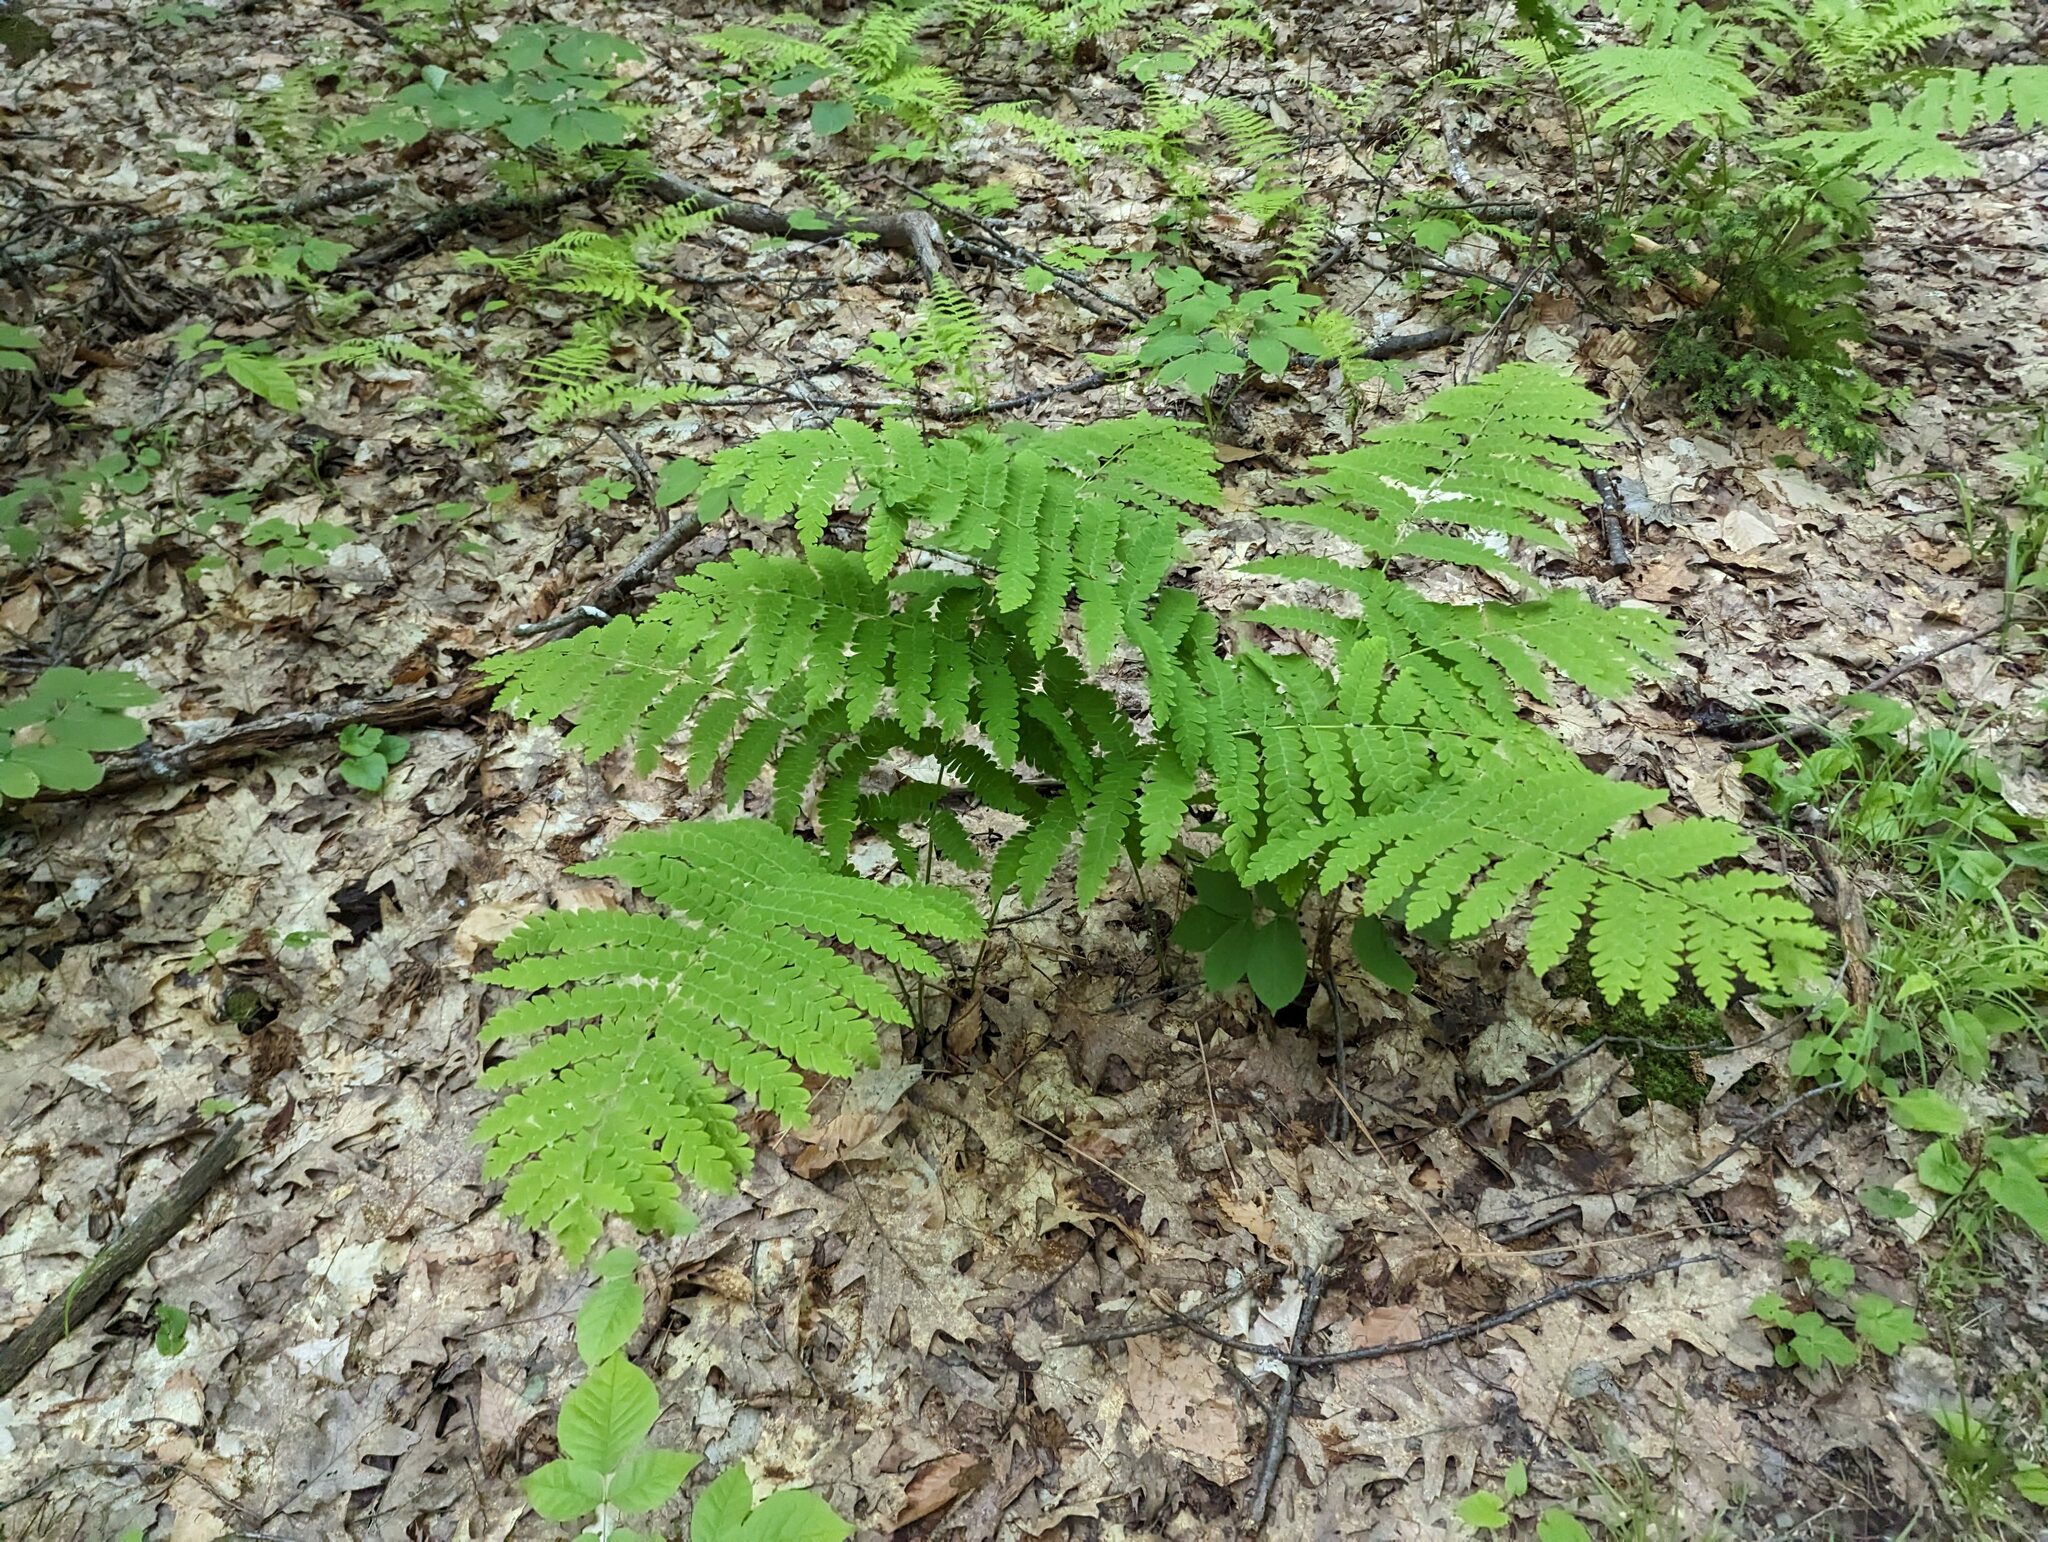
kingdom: Plantae
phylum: Tracheophyta
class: Polypodiopsida
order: Osmundales
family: Osmundaceae
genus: Claytosmunda
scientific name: Claytosmunda claytoniana
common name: Clayton's fern
